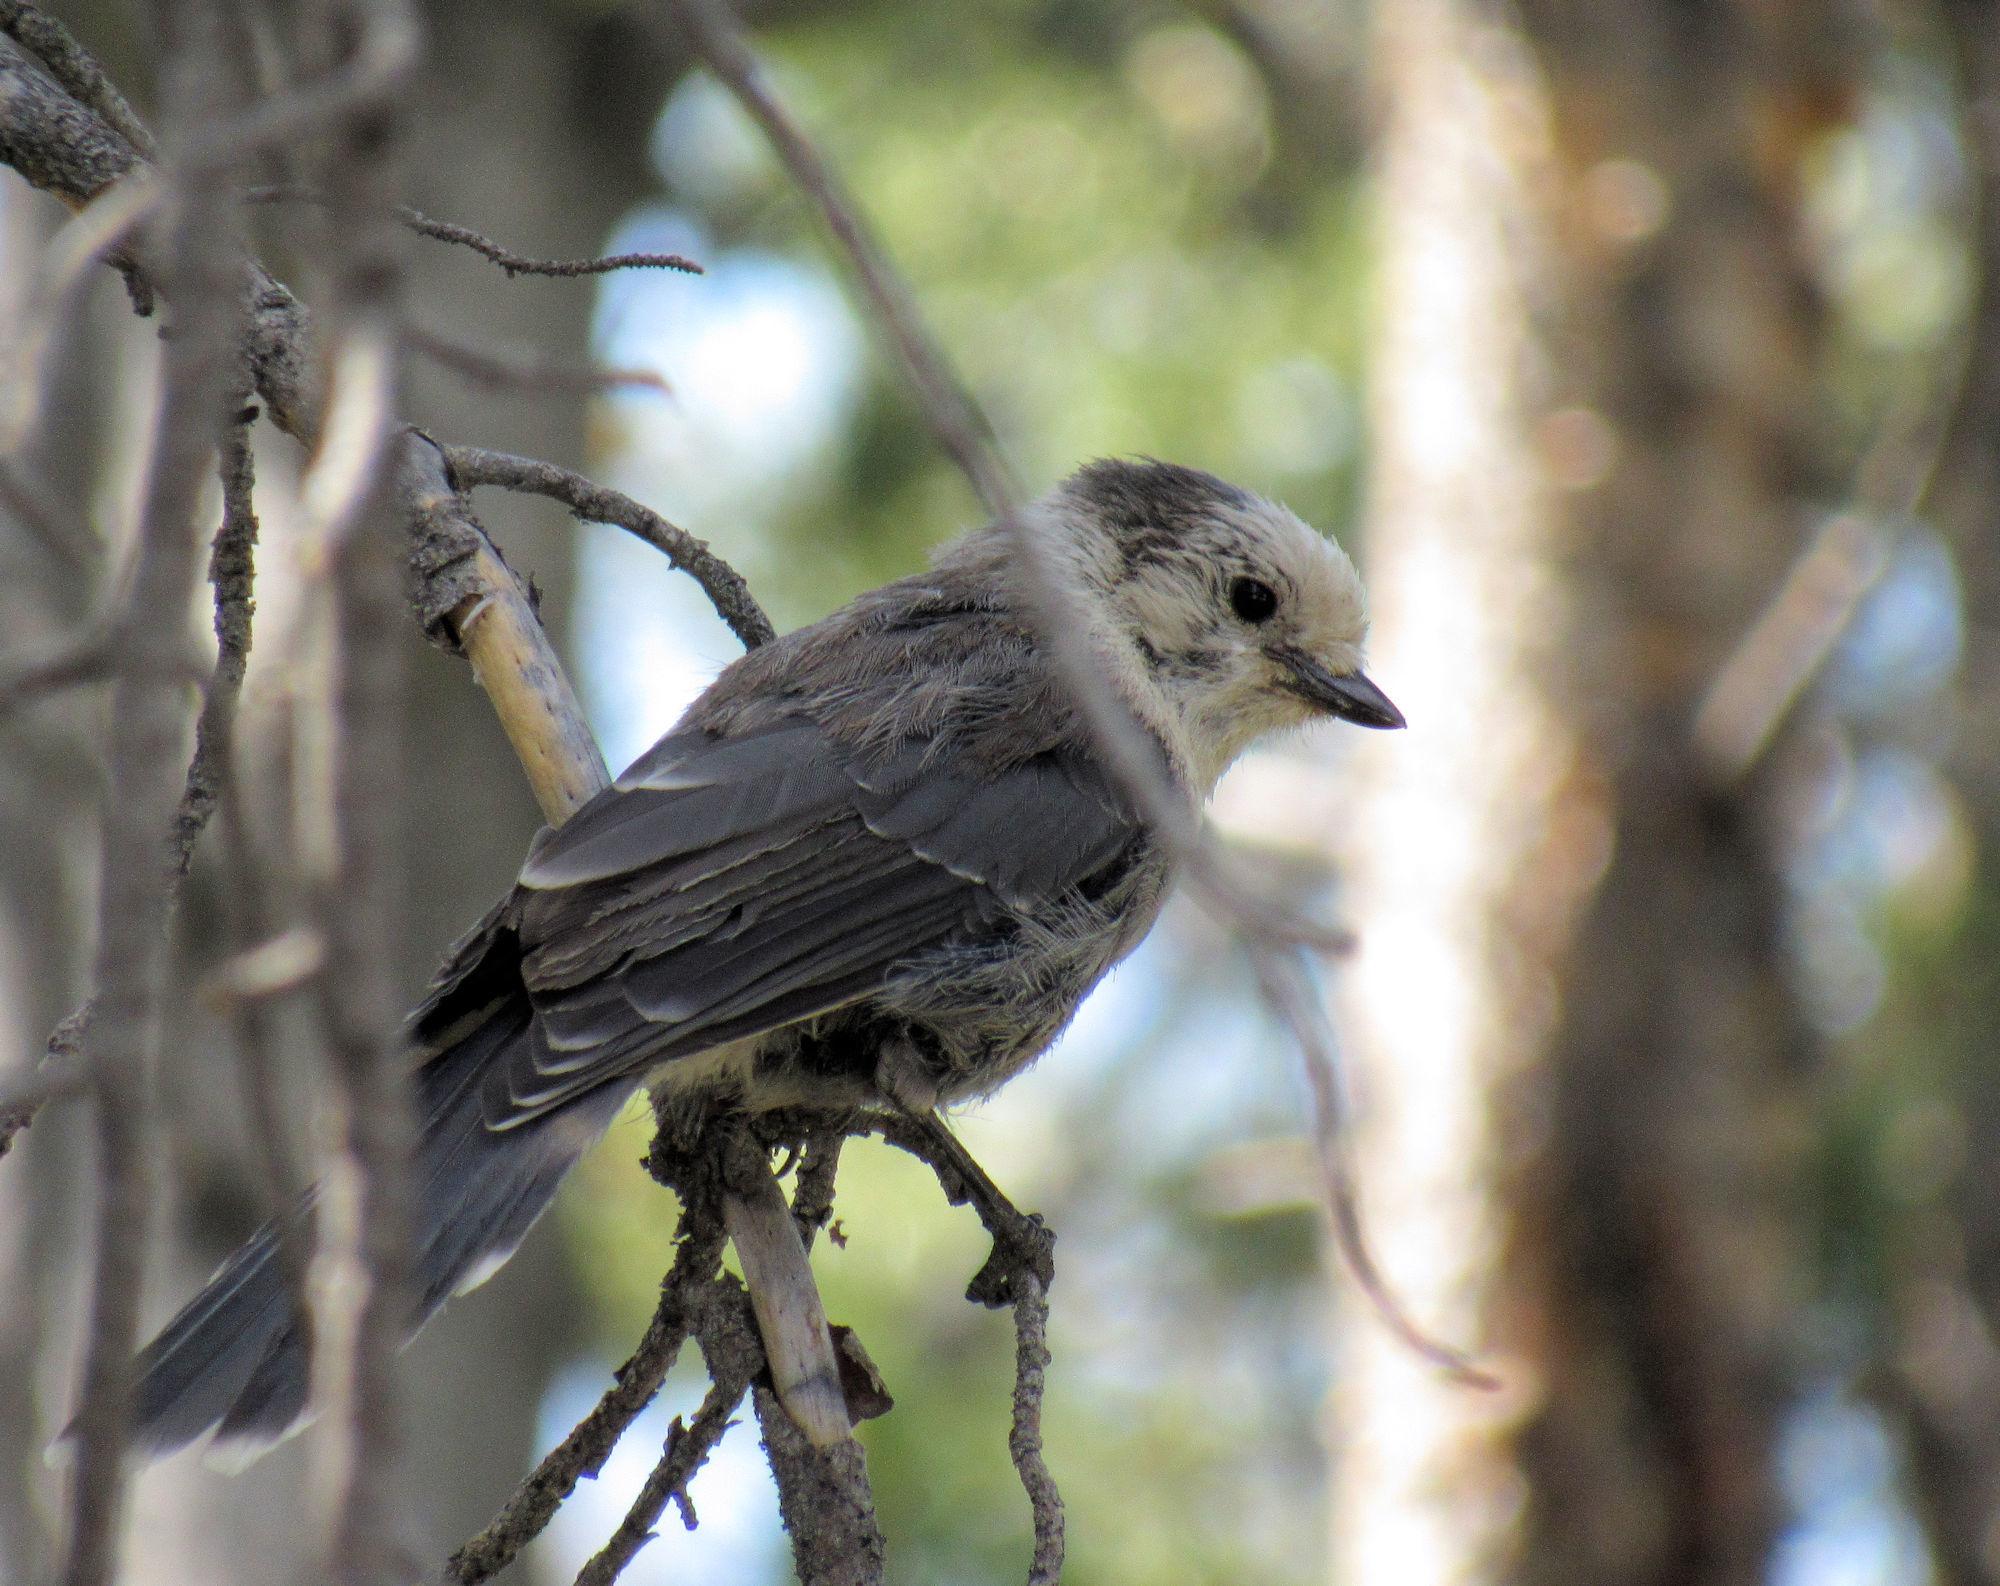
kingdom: Animalia
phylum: Chordata
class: Aves
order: Passeriformes
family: Corvidae
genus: Perisoreus
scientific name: Perisoreus canadensis
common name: Gray jay
